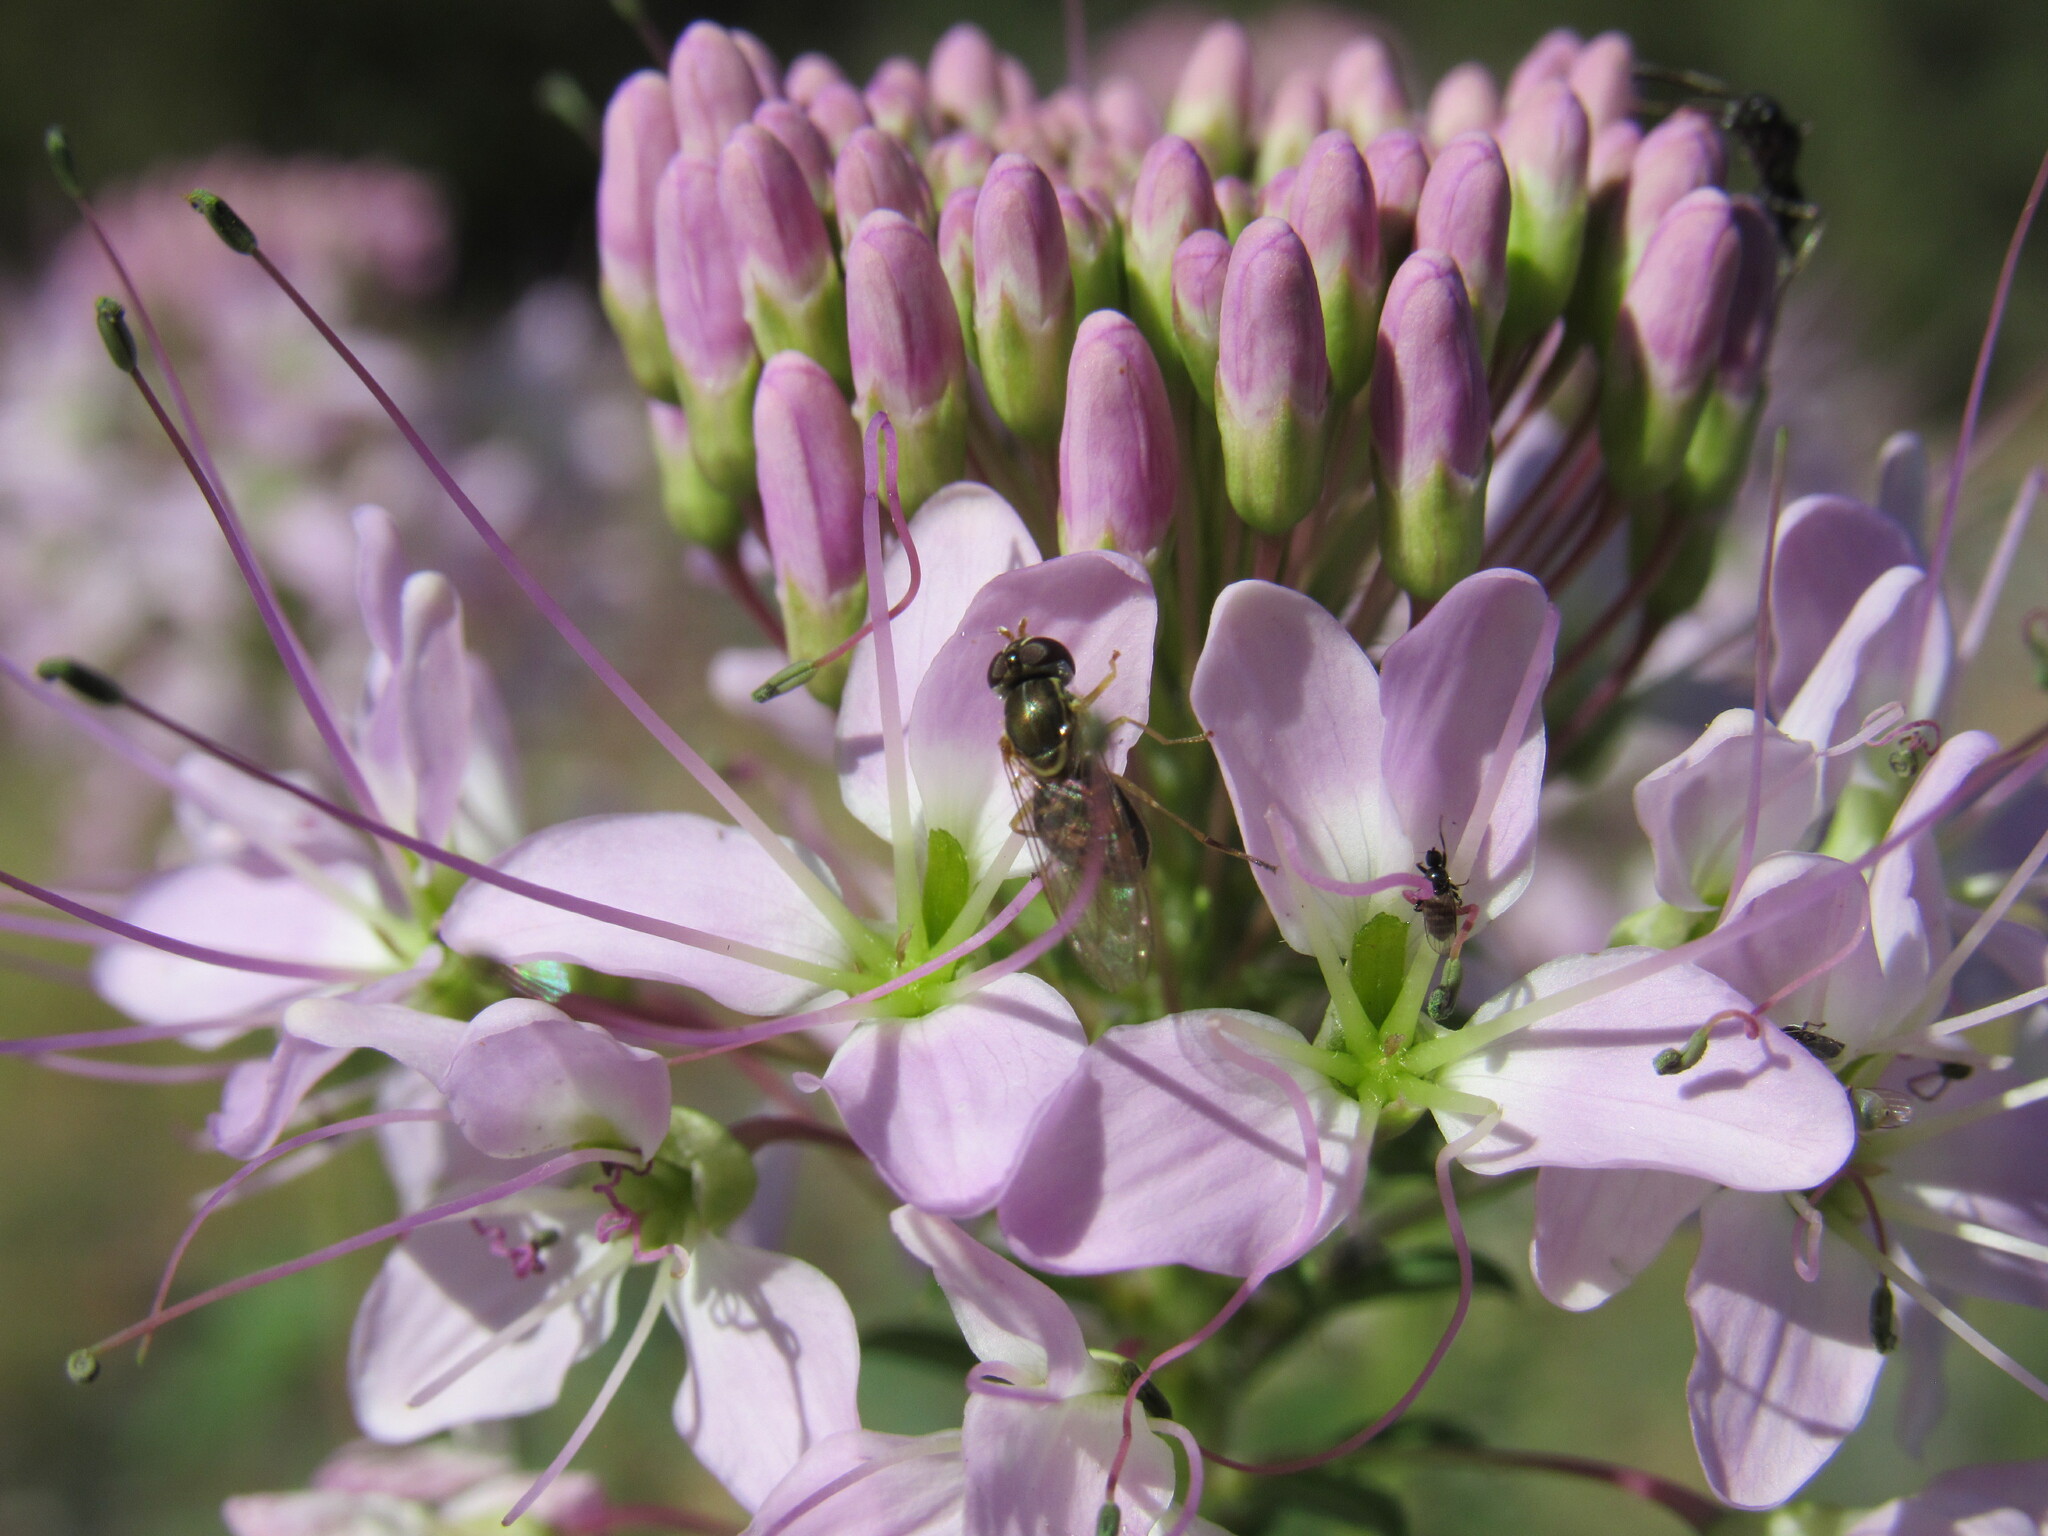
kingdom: Animalia
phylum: Arthropoda
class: Insecta
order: Diptera
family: Syrphidae
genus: Toxomerus
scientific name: Toxomerus marginatus
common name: Syrphid fly
